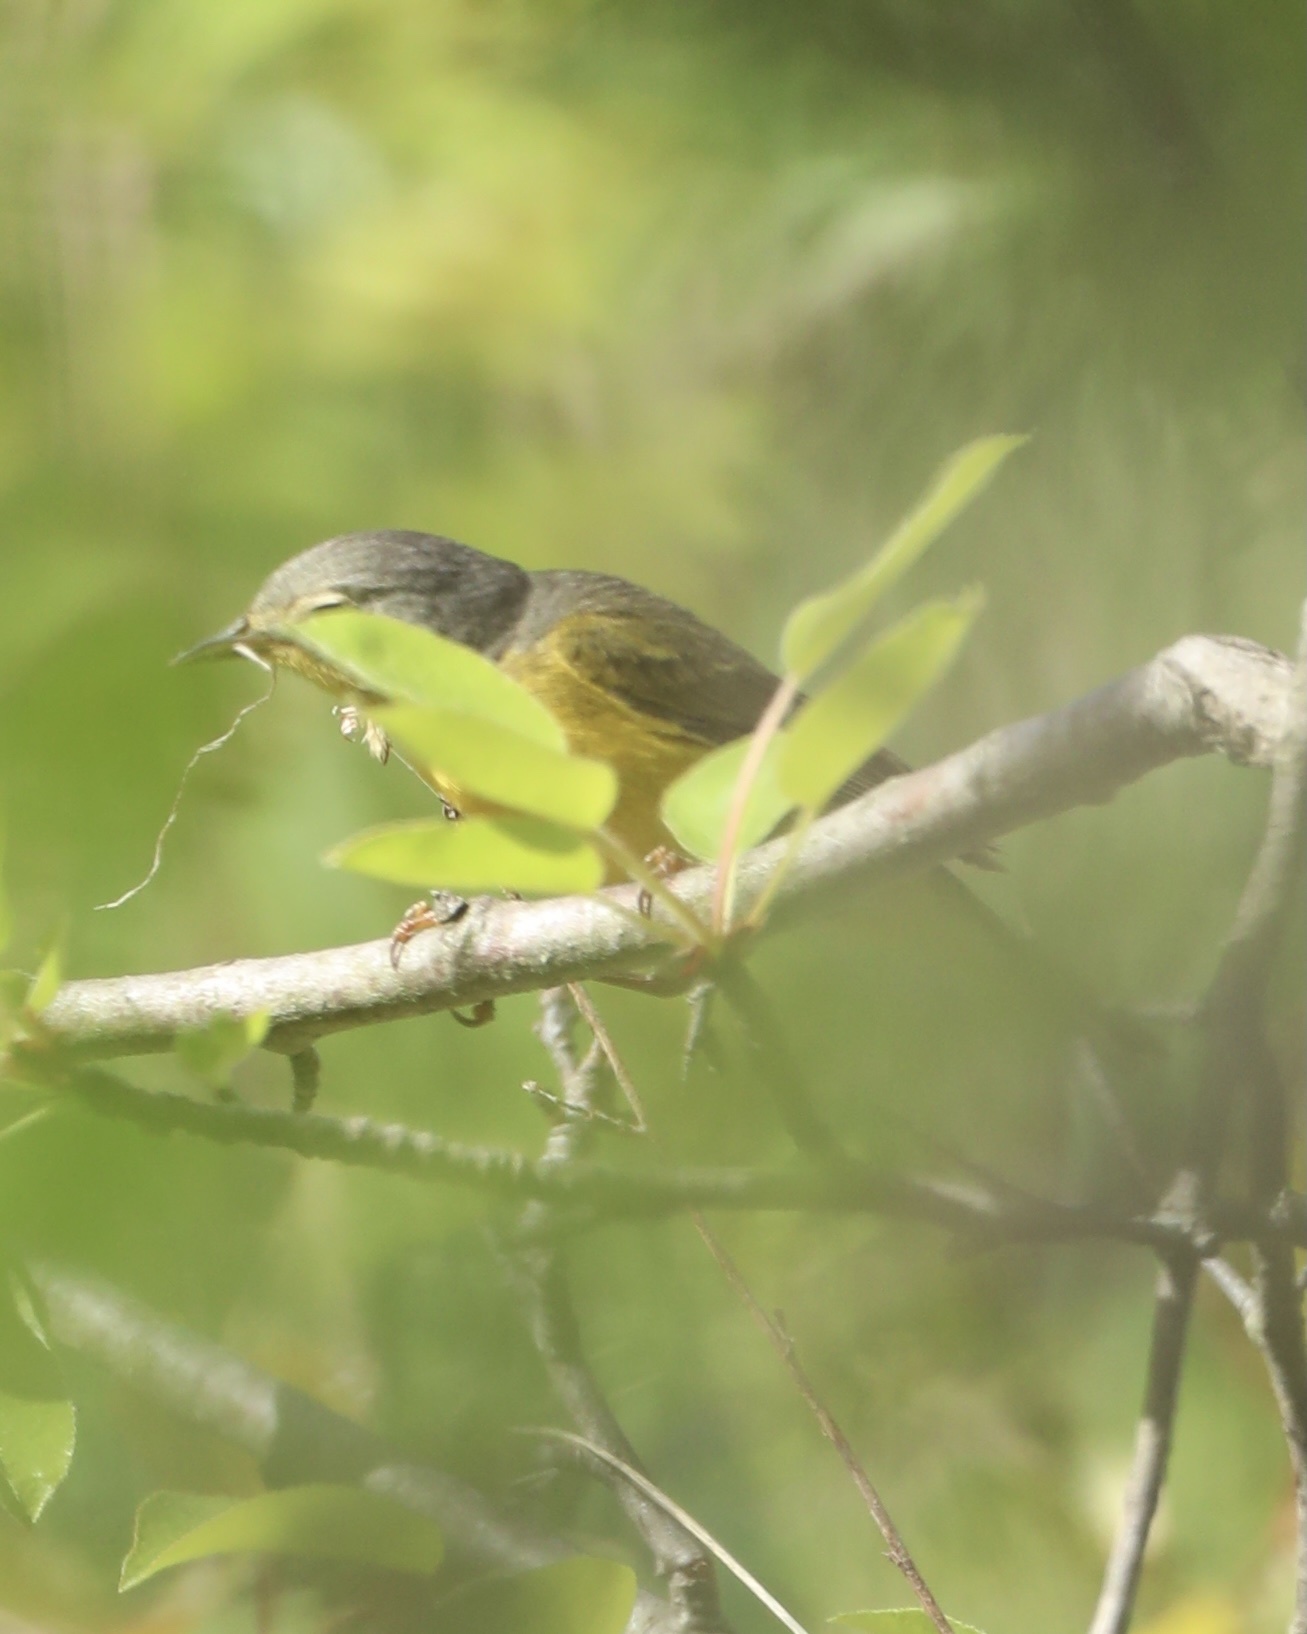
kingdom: Animalia
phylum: Chordata
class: Aves
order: Passeriformes
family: Parulidae
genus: Leiothlypis
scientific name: Leiothlypis ruficapilla
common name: Nashville warbler
